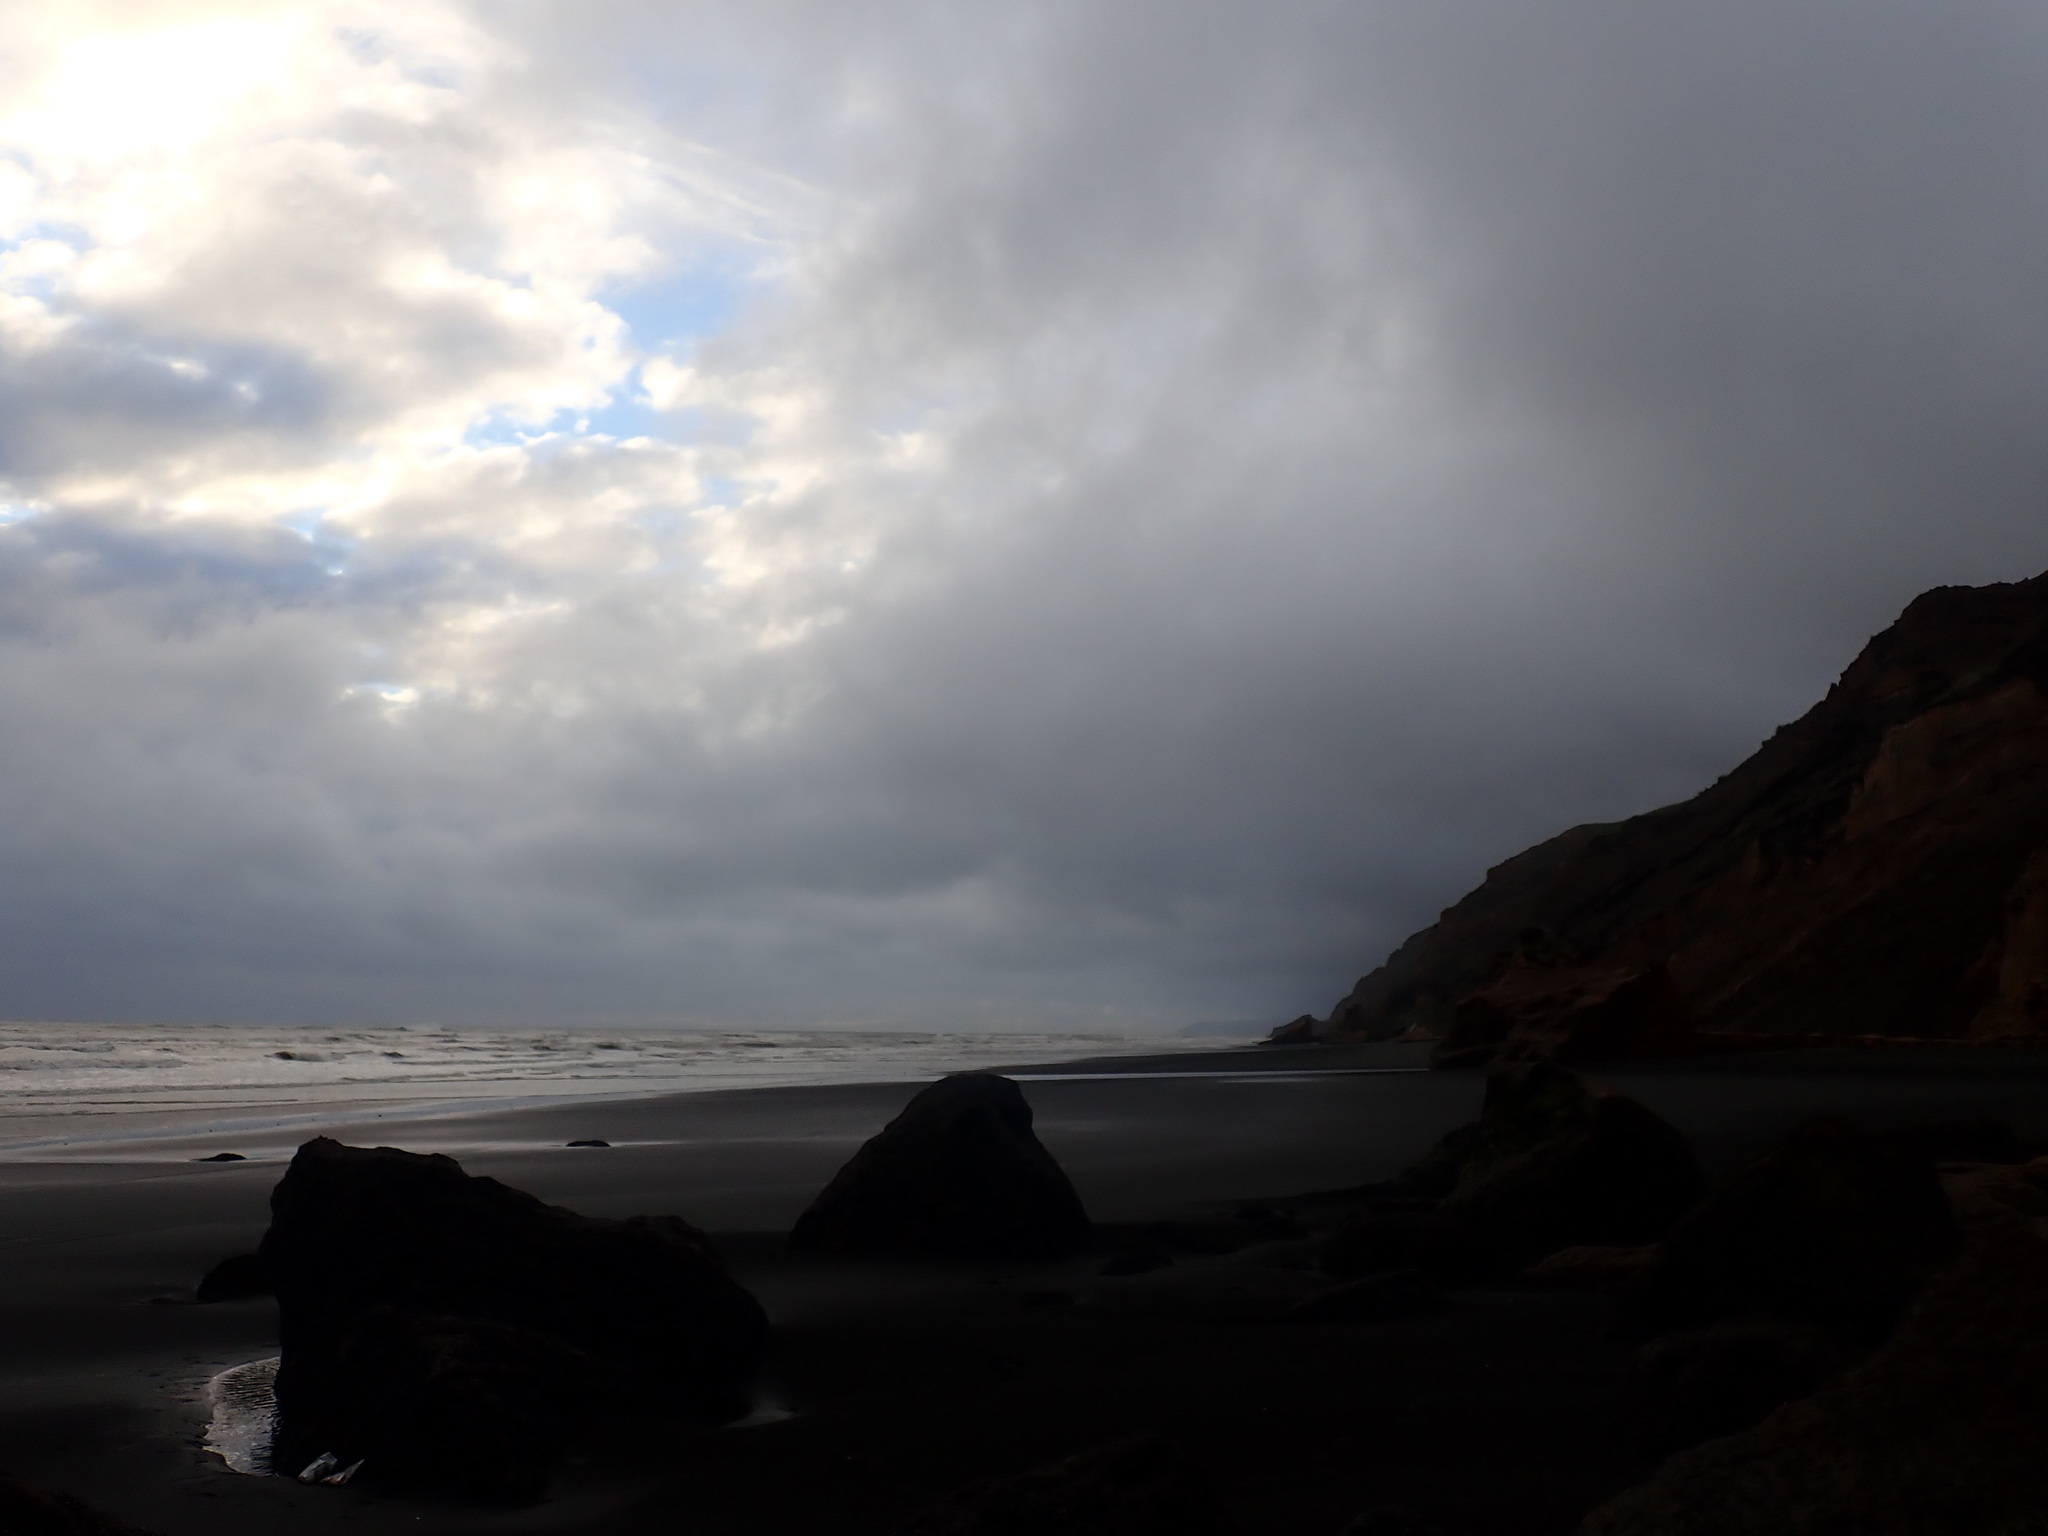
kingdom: Animalia
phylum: Mollusca
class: Gastropoda
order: Siphonariida
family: Siphonariidae
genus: Siphonaria
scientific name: Siphonaria australis
